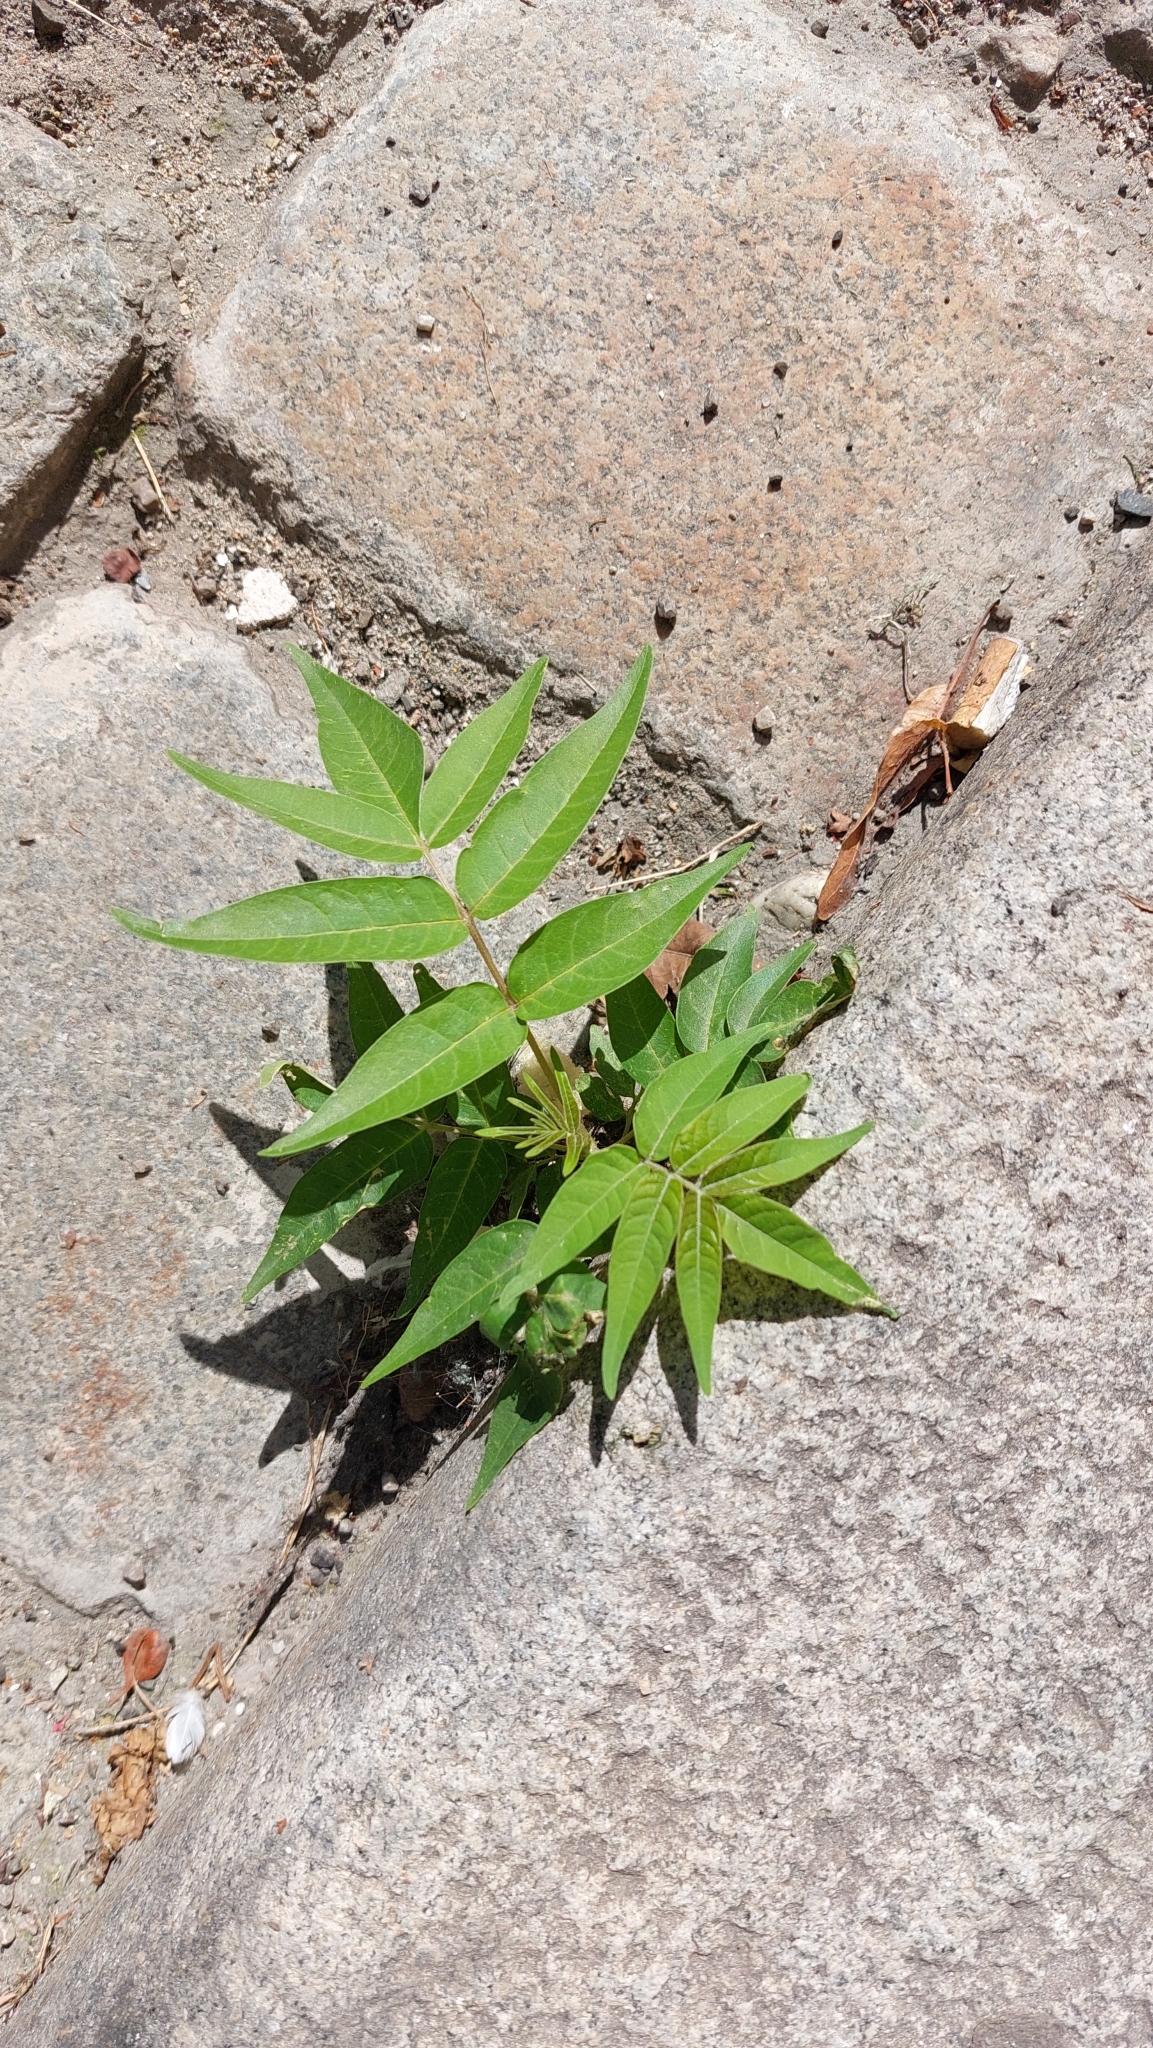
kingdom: Plantae
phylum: Tracheophyta
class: Magnoliopsida
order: Sapindales
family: Simaroubaceae
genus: Ailanthus
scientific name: Ailanthus altissima
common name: Tree-of-heaven
